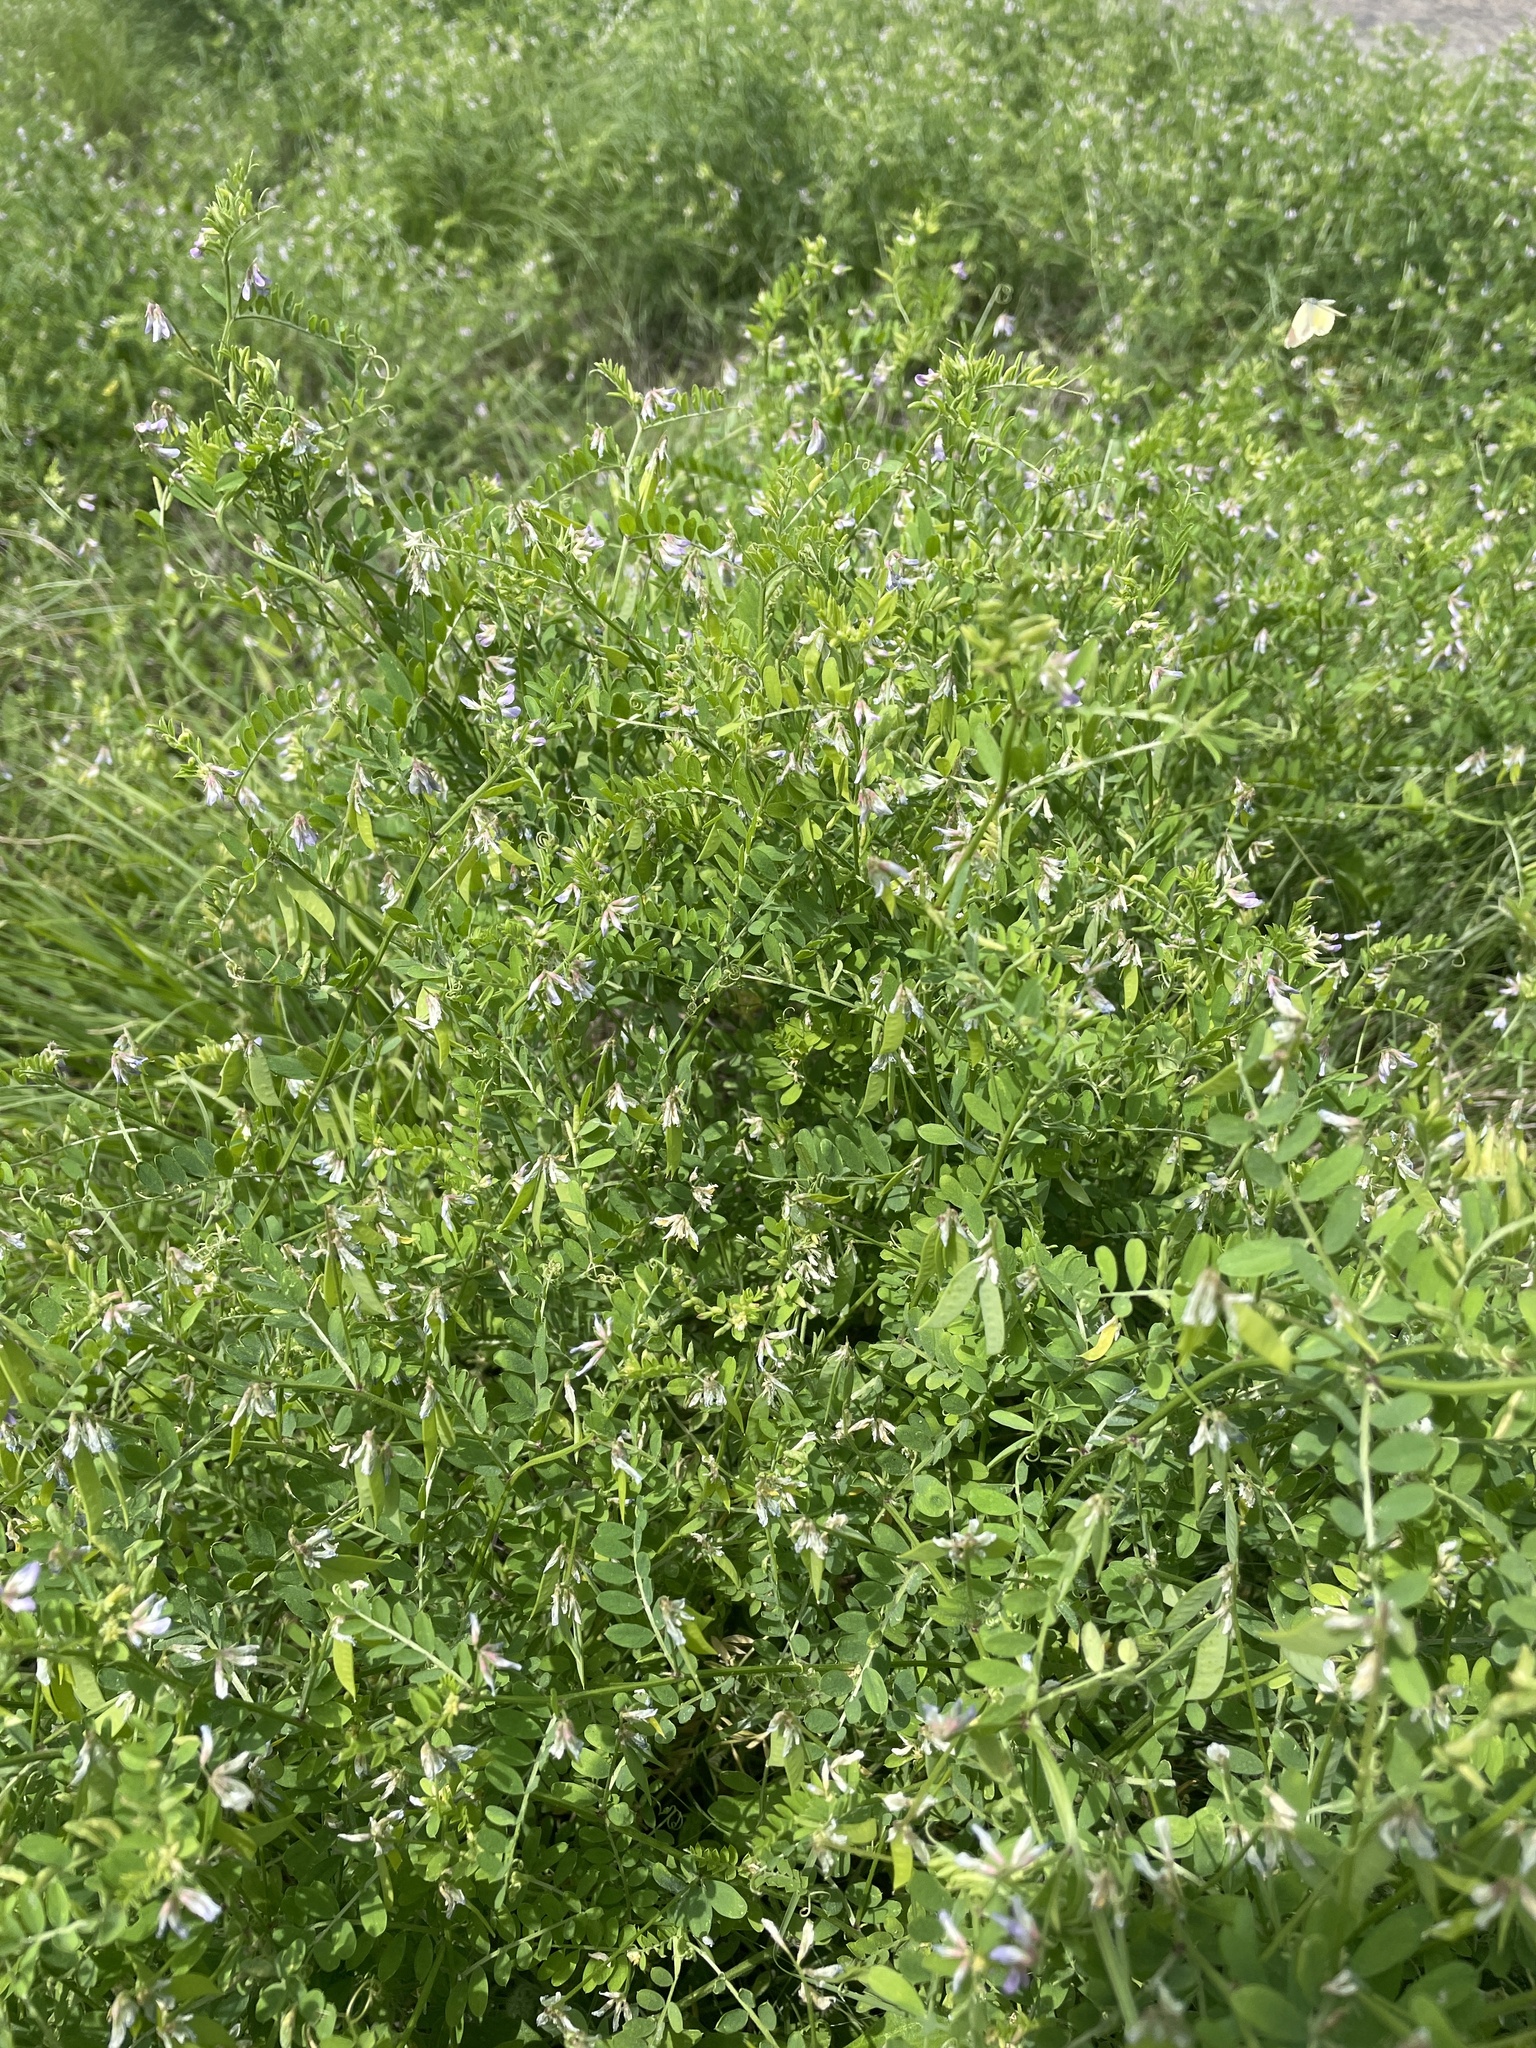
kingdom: Plantae
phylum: Tracheophyta
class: Magnoliopsida
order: Fabales
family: Fabaceae
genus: Vicia
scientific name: Vicia ludoviciana
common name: Louisiana vetch
